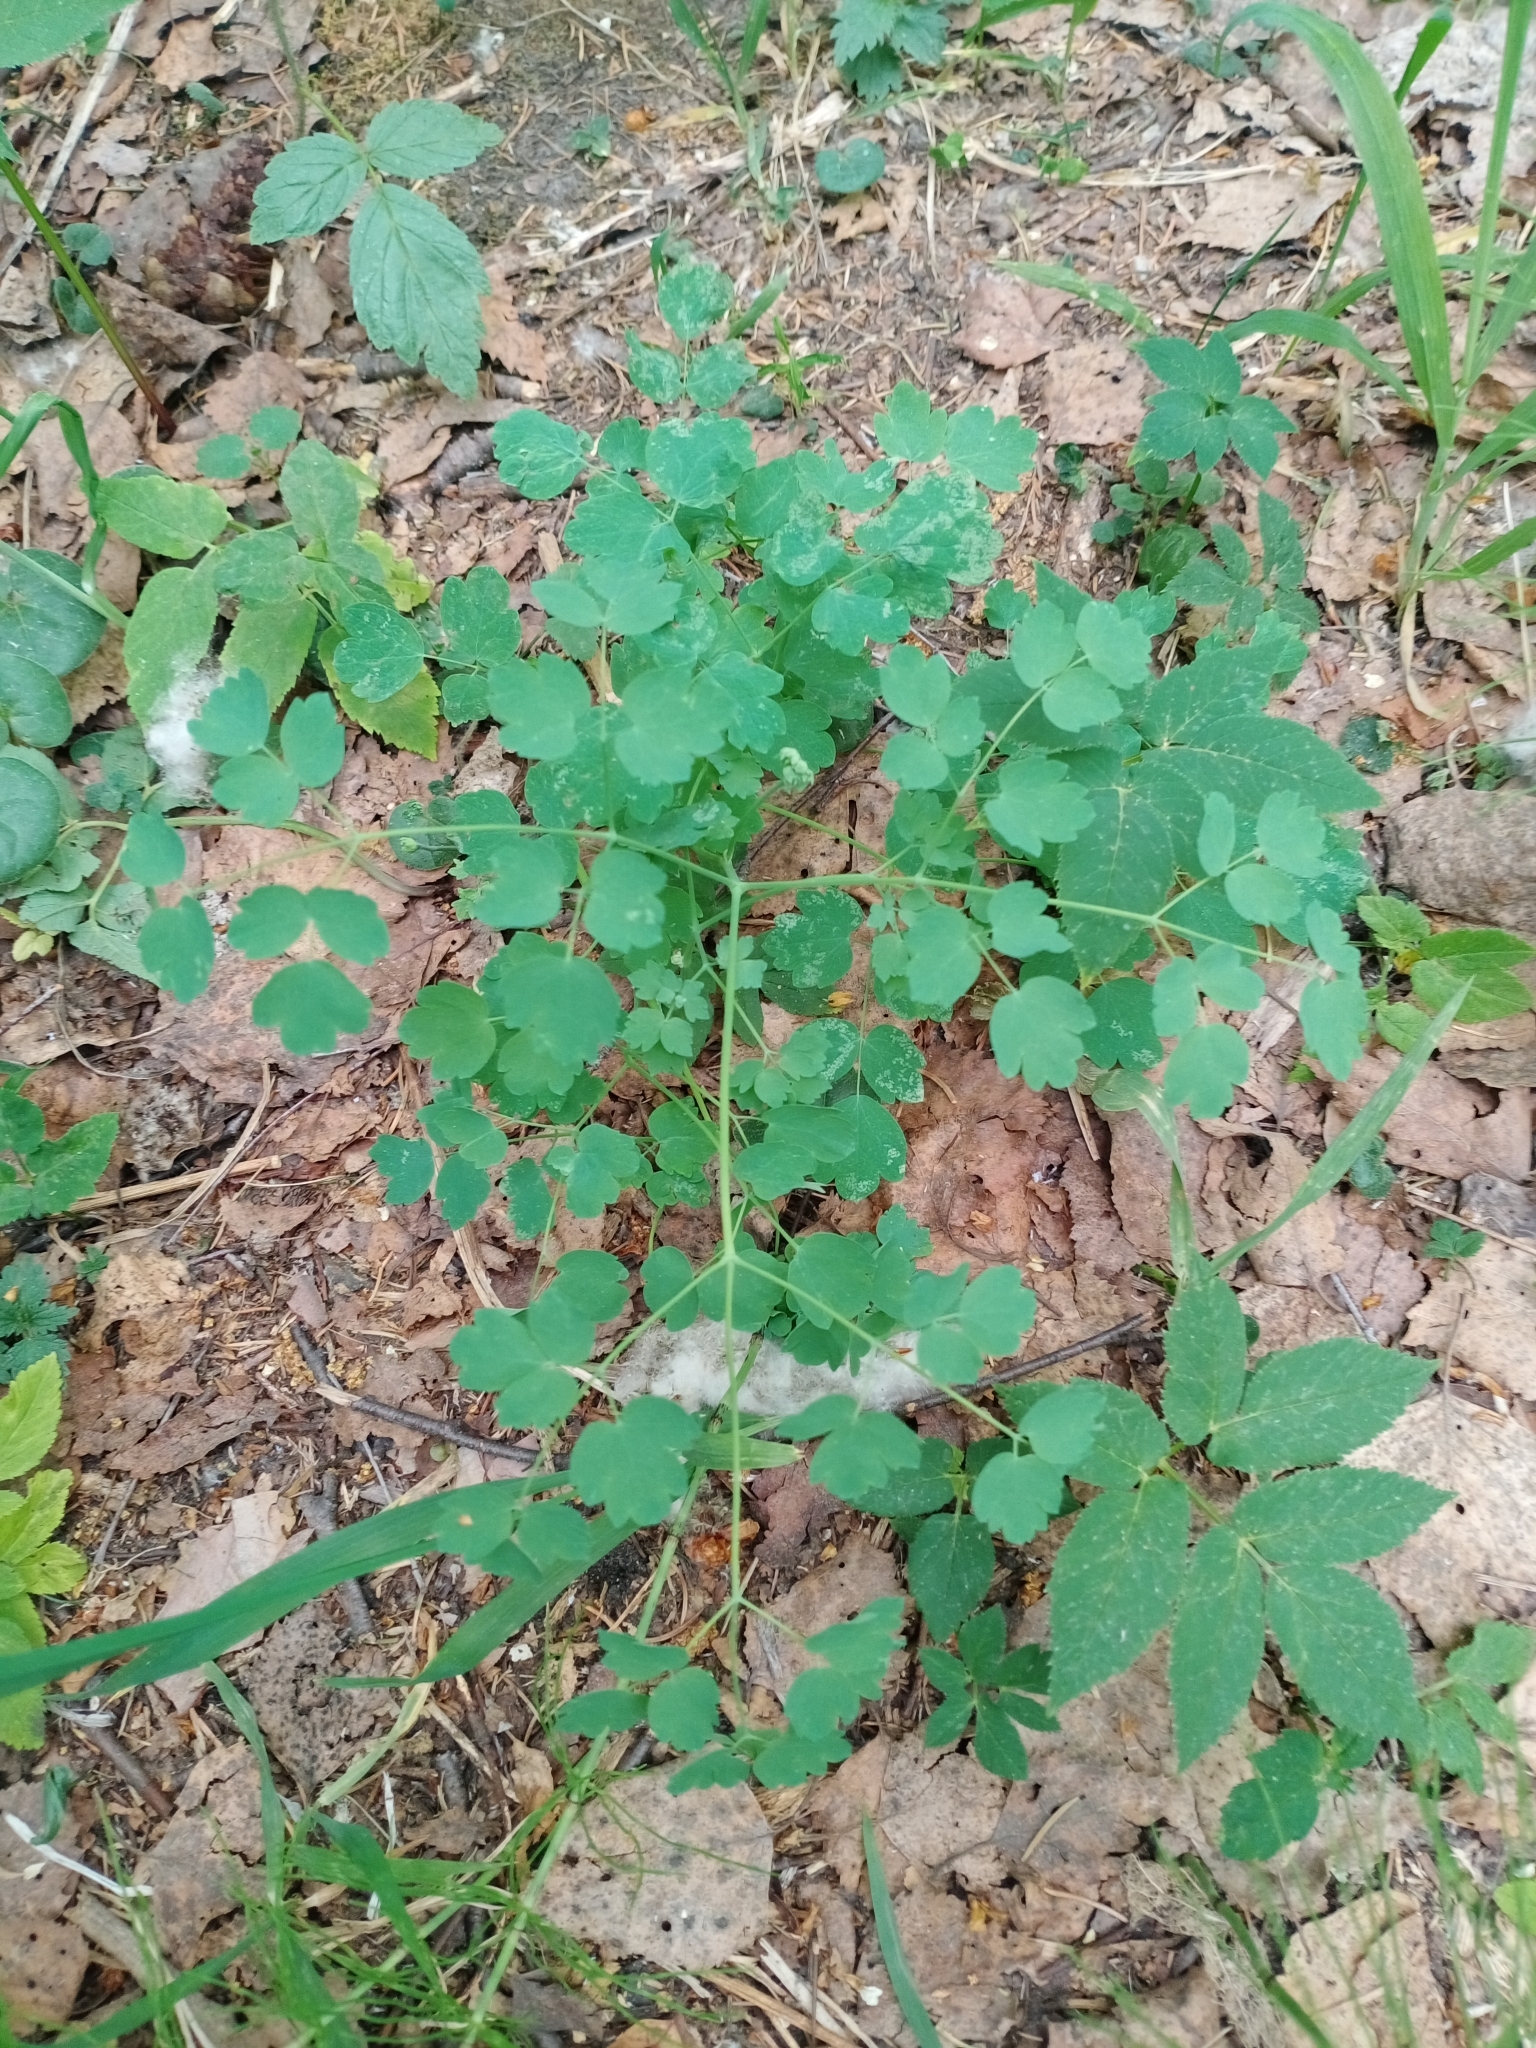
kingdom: Plantae
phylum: Tracheophyta
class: Magnoliopsida
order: Ranunculales
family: Ranunculaceae
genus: Thalictrum
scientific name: Thalictrum minus
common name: Lesser meadow-rue
